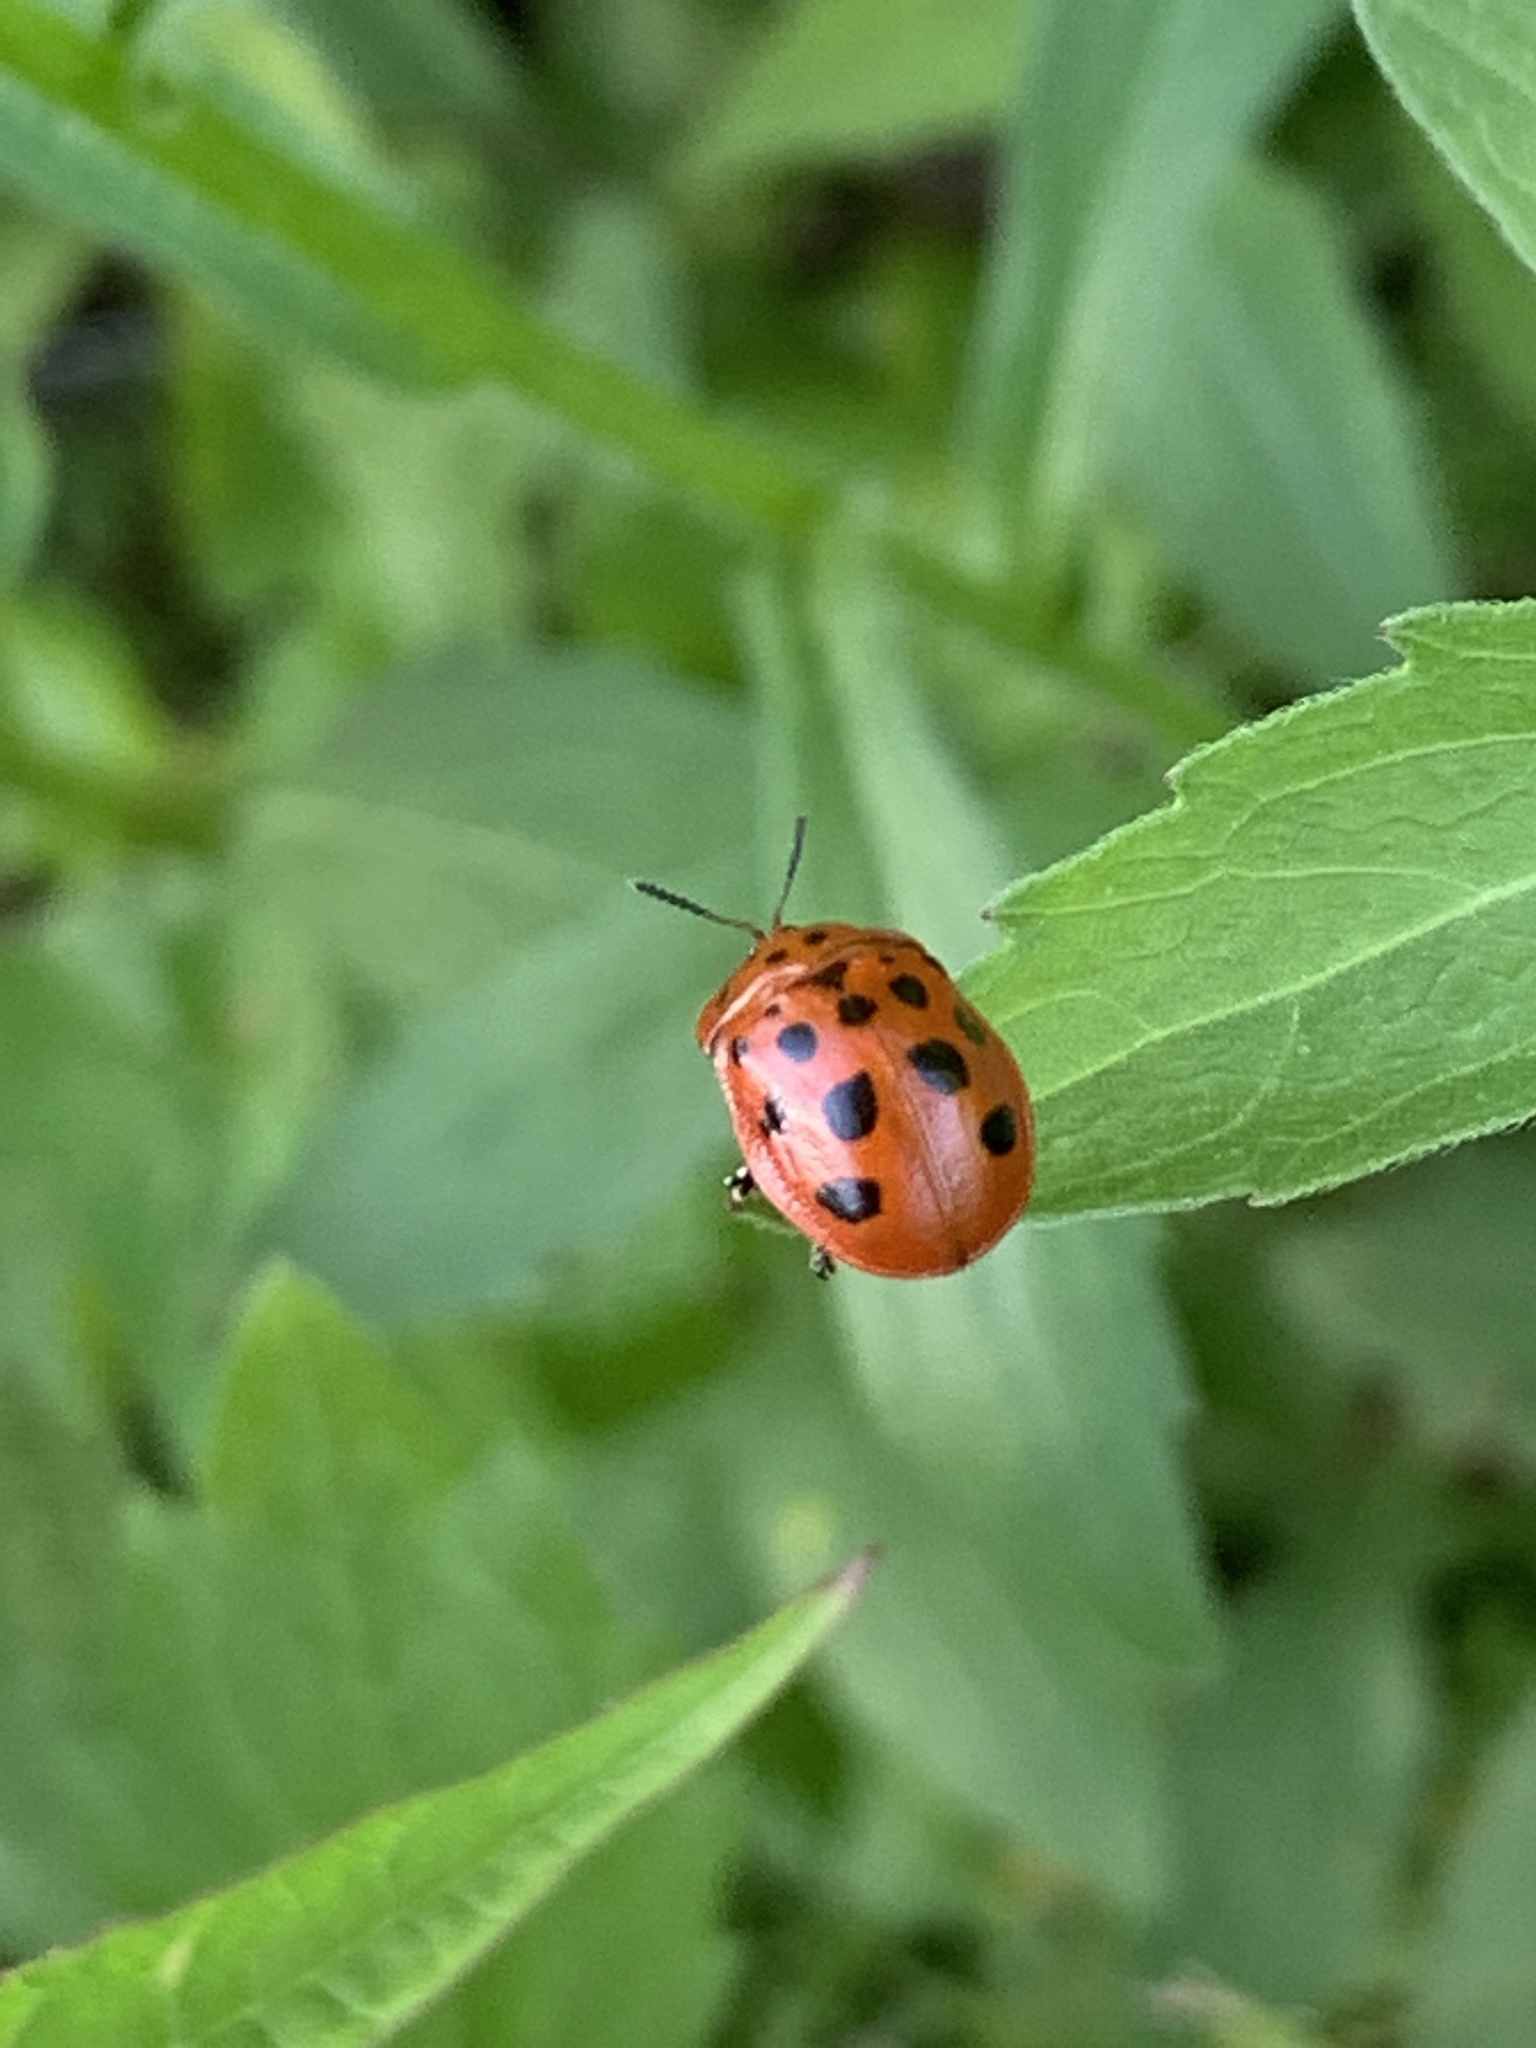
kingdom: Animalia
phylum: Arthropoda
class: Insecta
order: Coleoptera
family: Chrysomelidae
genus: Chelymorpha
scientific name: Chelymorpha cassidea
